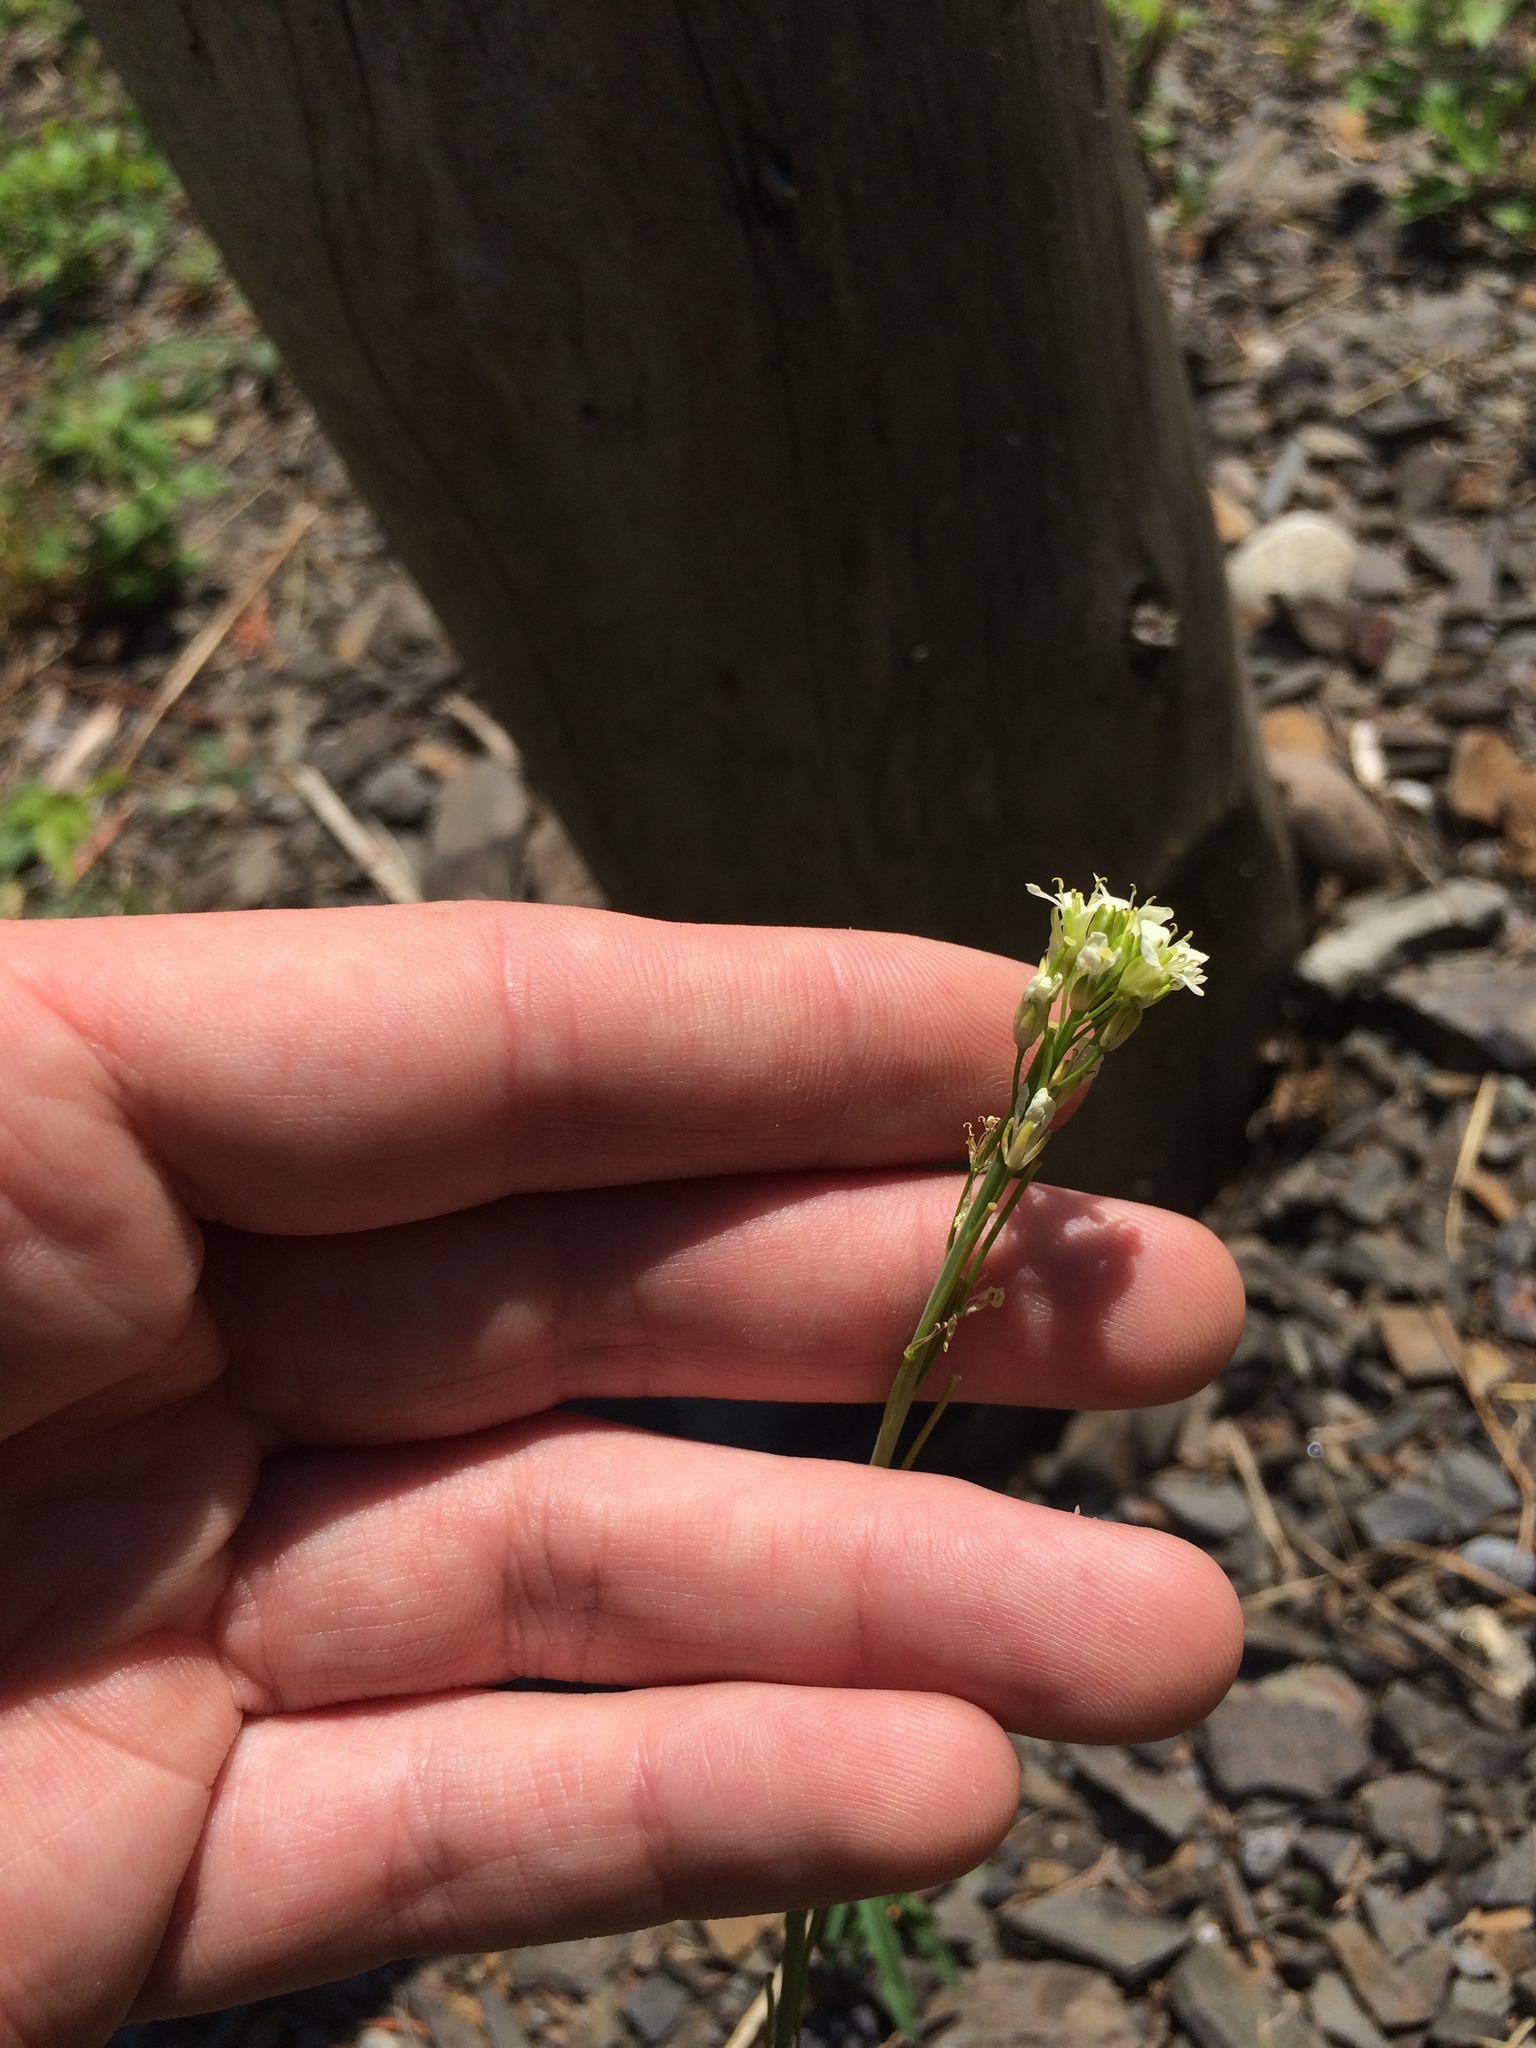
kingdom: Plantae
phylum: Tracheophyta
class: Magnoliopsida
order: Brassicales
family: Brassicaceae
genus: Turritis
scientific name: Turritis glabra
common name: Tower rockcress
